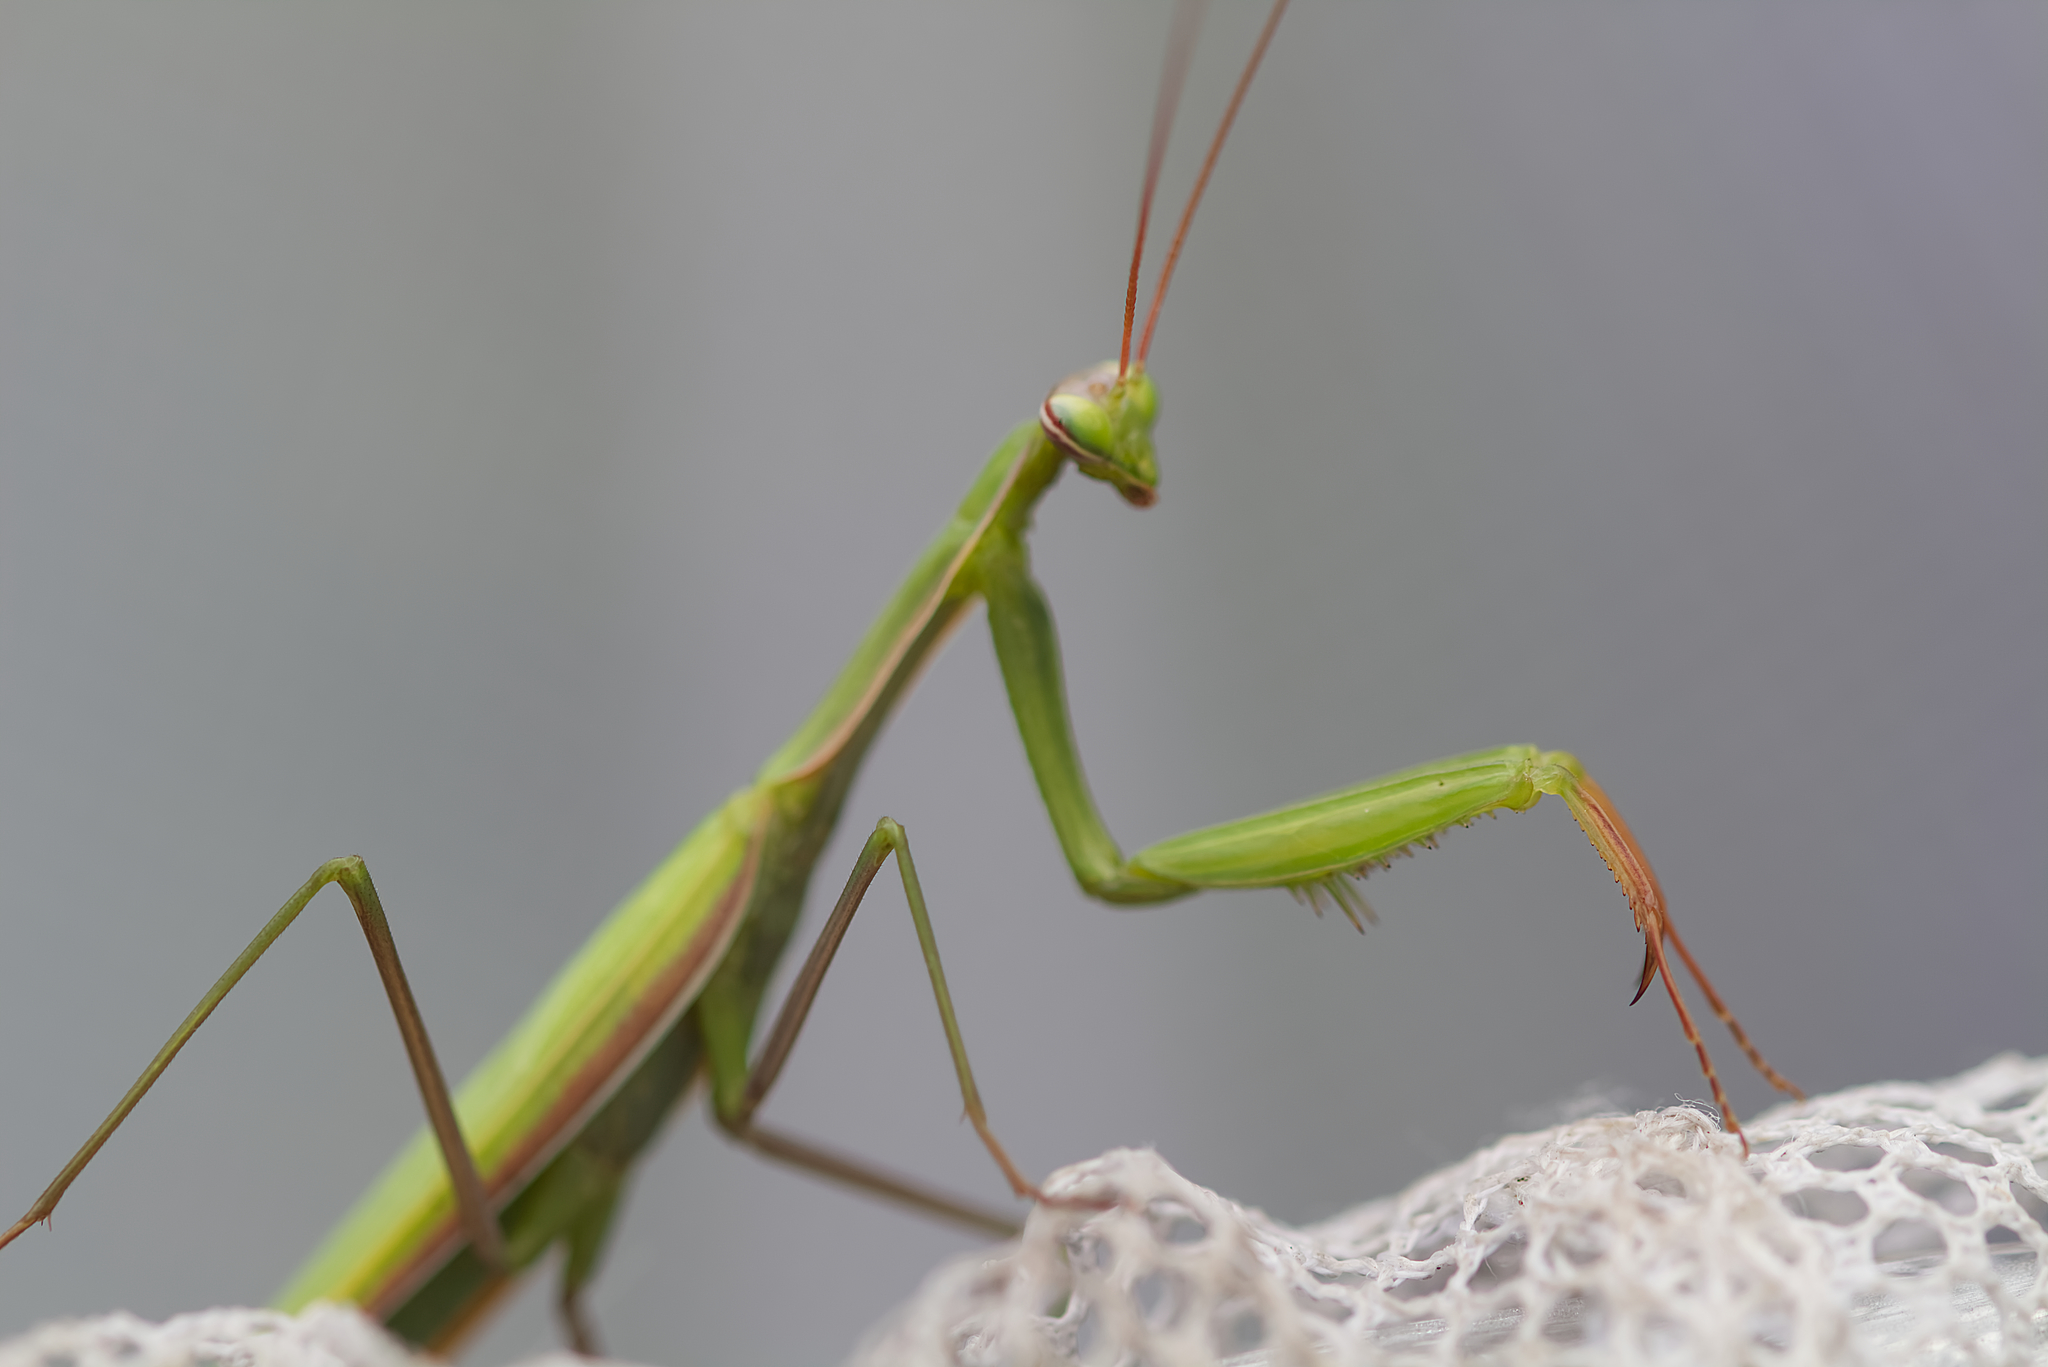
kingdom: Animalia
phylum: Arthropoda
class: Insecta
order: Mantodea
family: Mantidae
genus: Mantis
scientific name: Mantis religiosa
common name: Praying mantis
